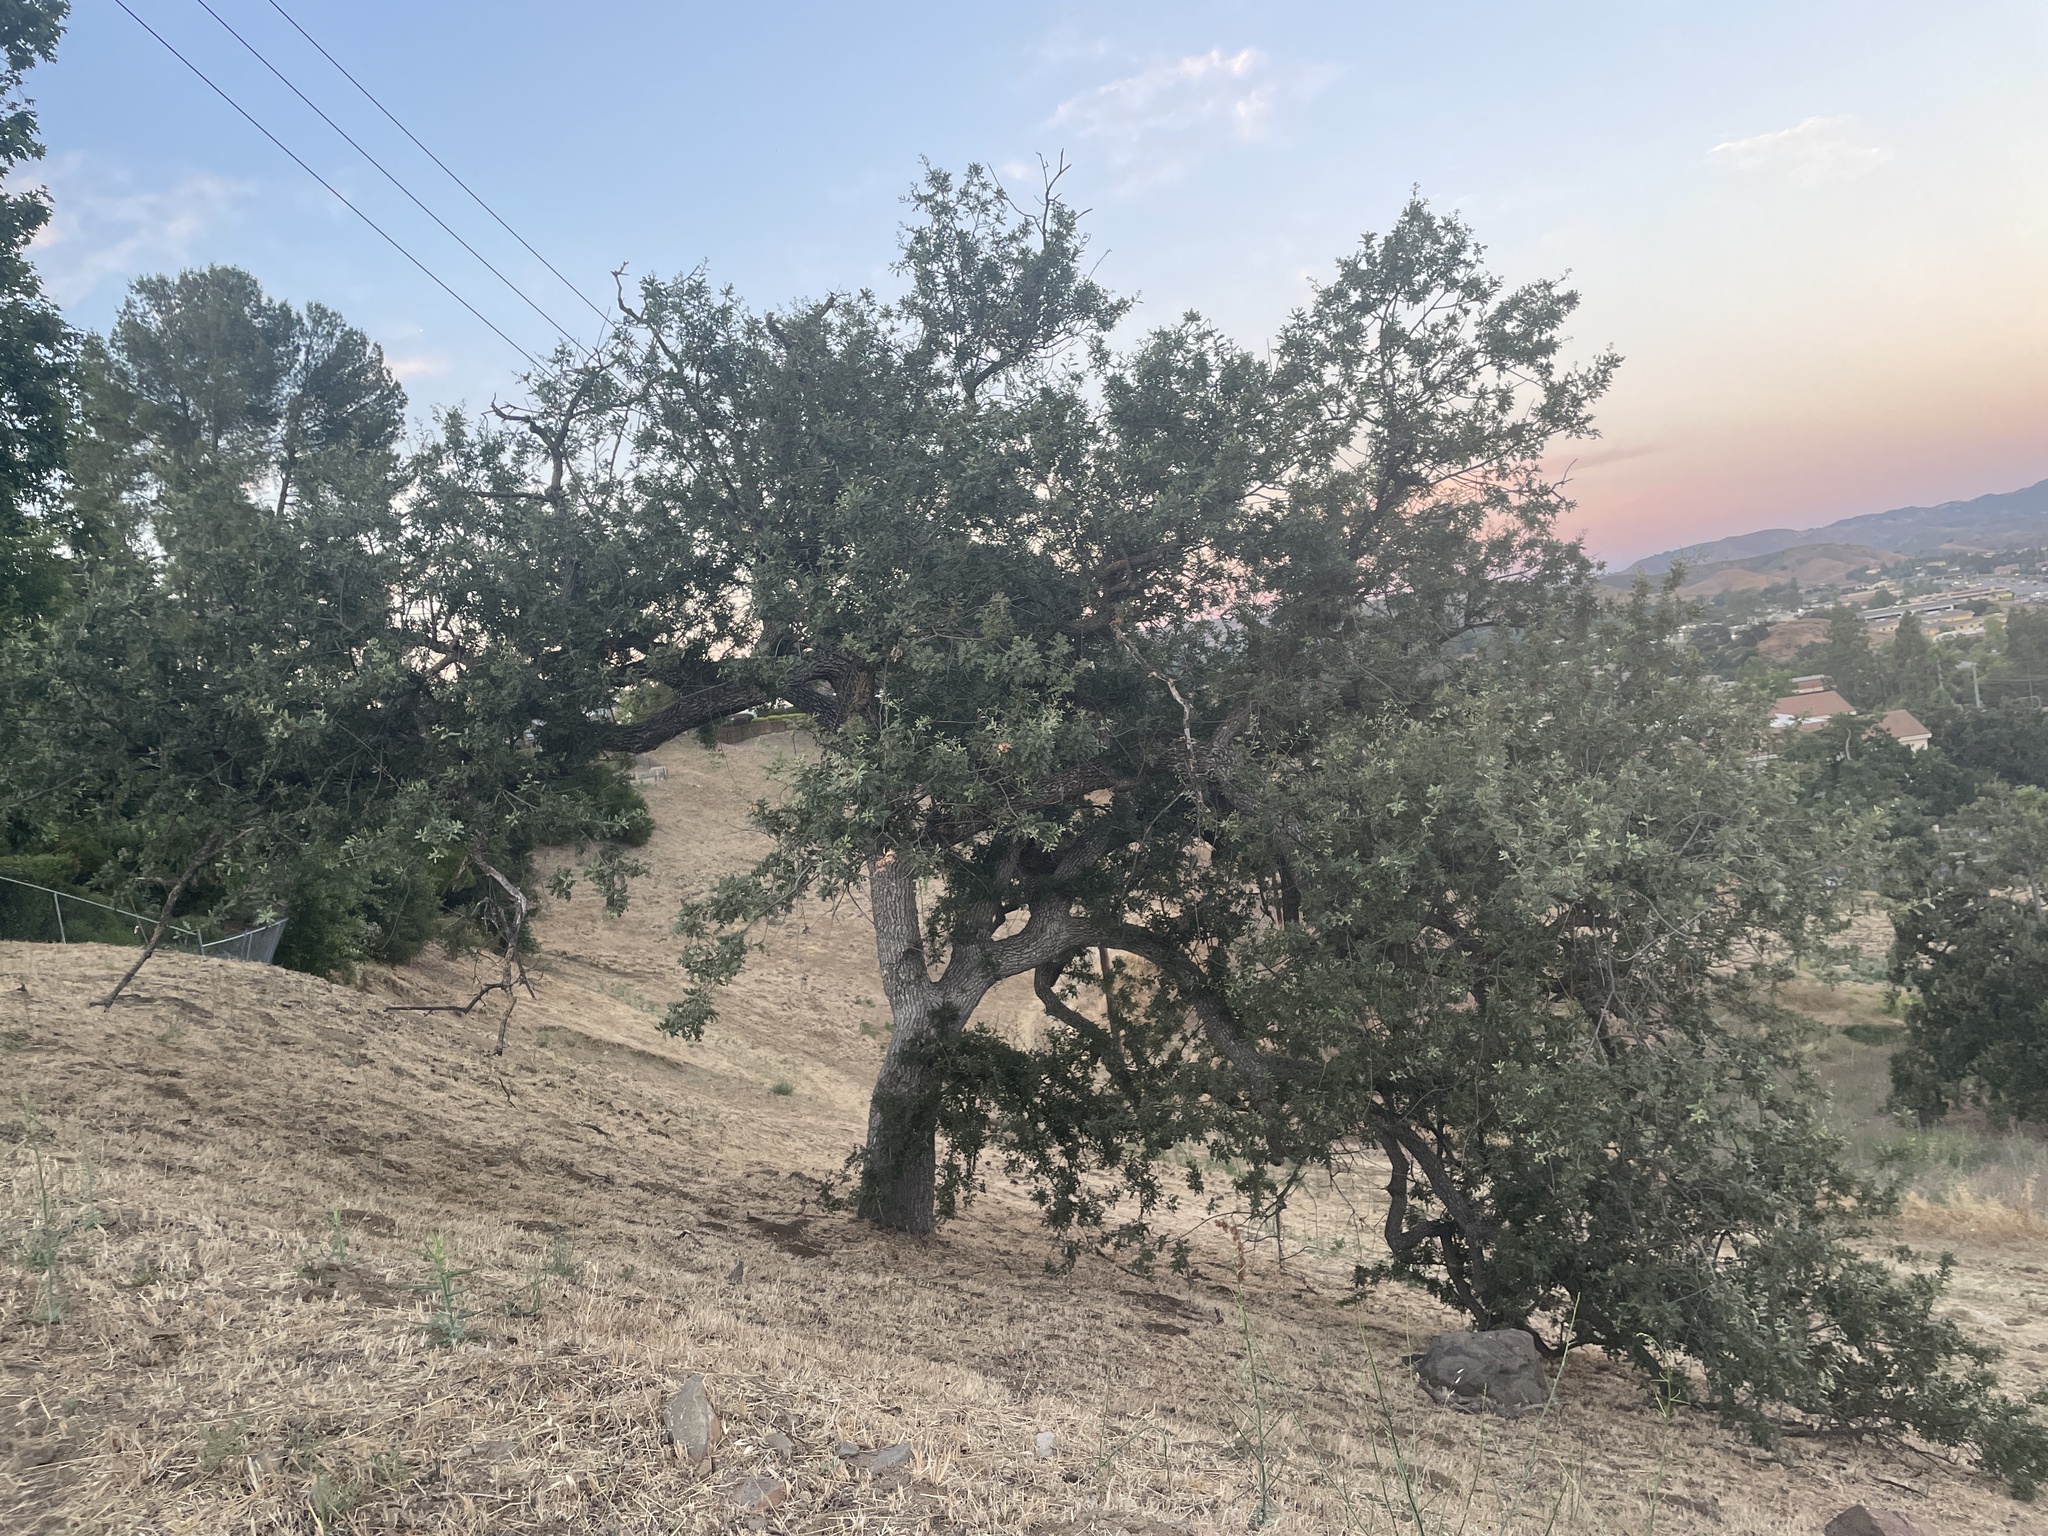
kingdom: Plantae
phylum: Tracheophyta
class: Magnoliopsida
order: Fagales
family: Fagaceae
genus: Quercus
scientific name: Quercus lobata
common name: Valley oak
